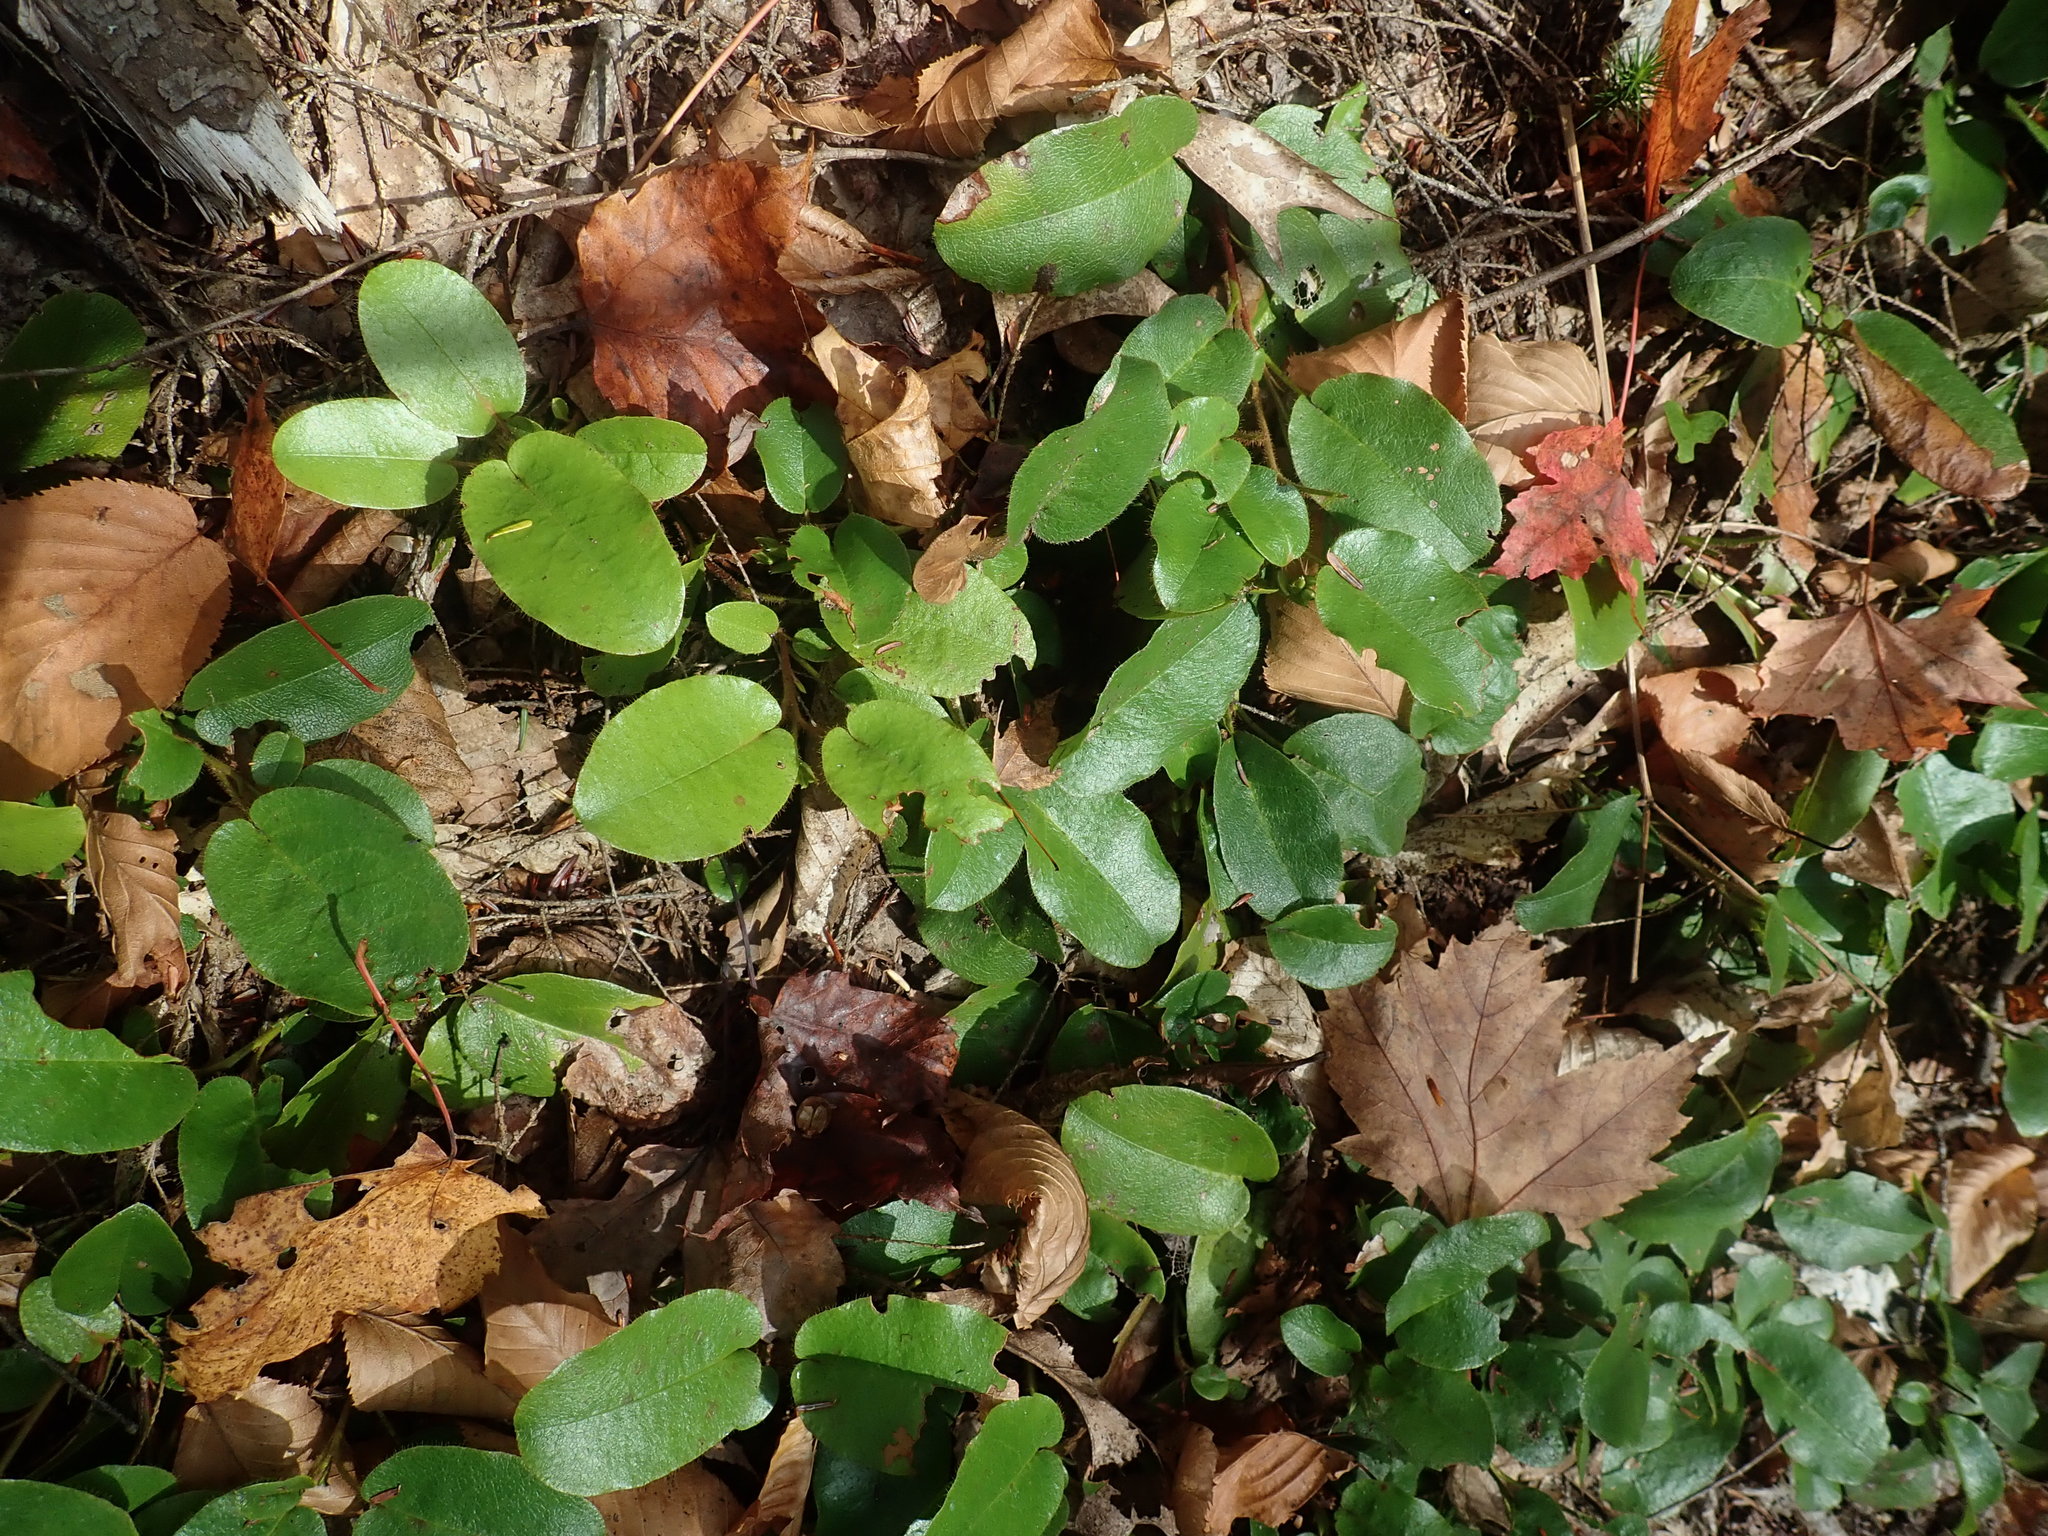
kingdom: Plantae
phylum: Tracheophyta
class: Magnoliopsida
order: Ericales
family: Ericaceae
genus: Epigaea
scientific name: Epigaea repens
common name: Gravelroot
